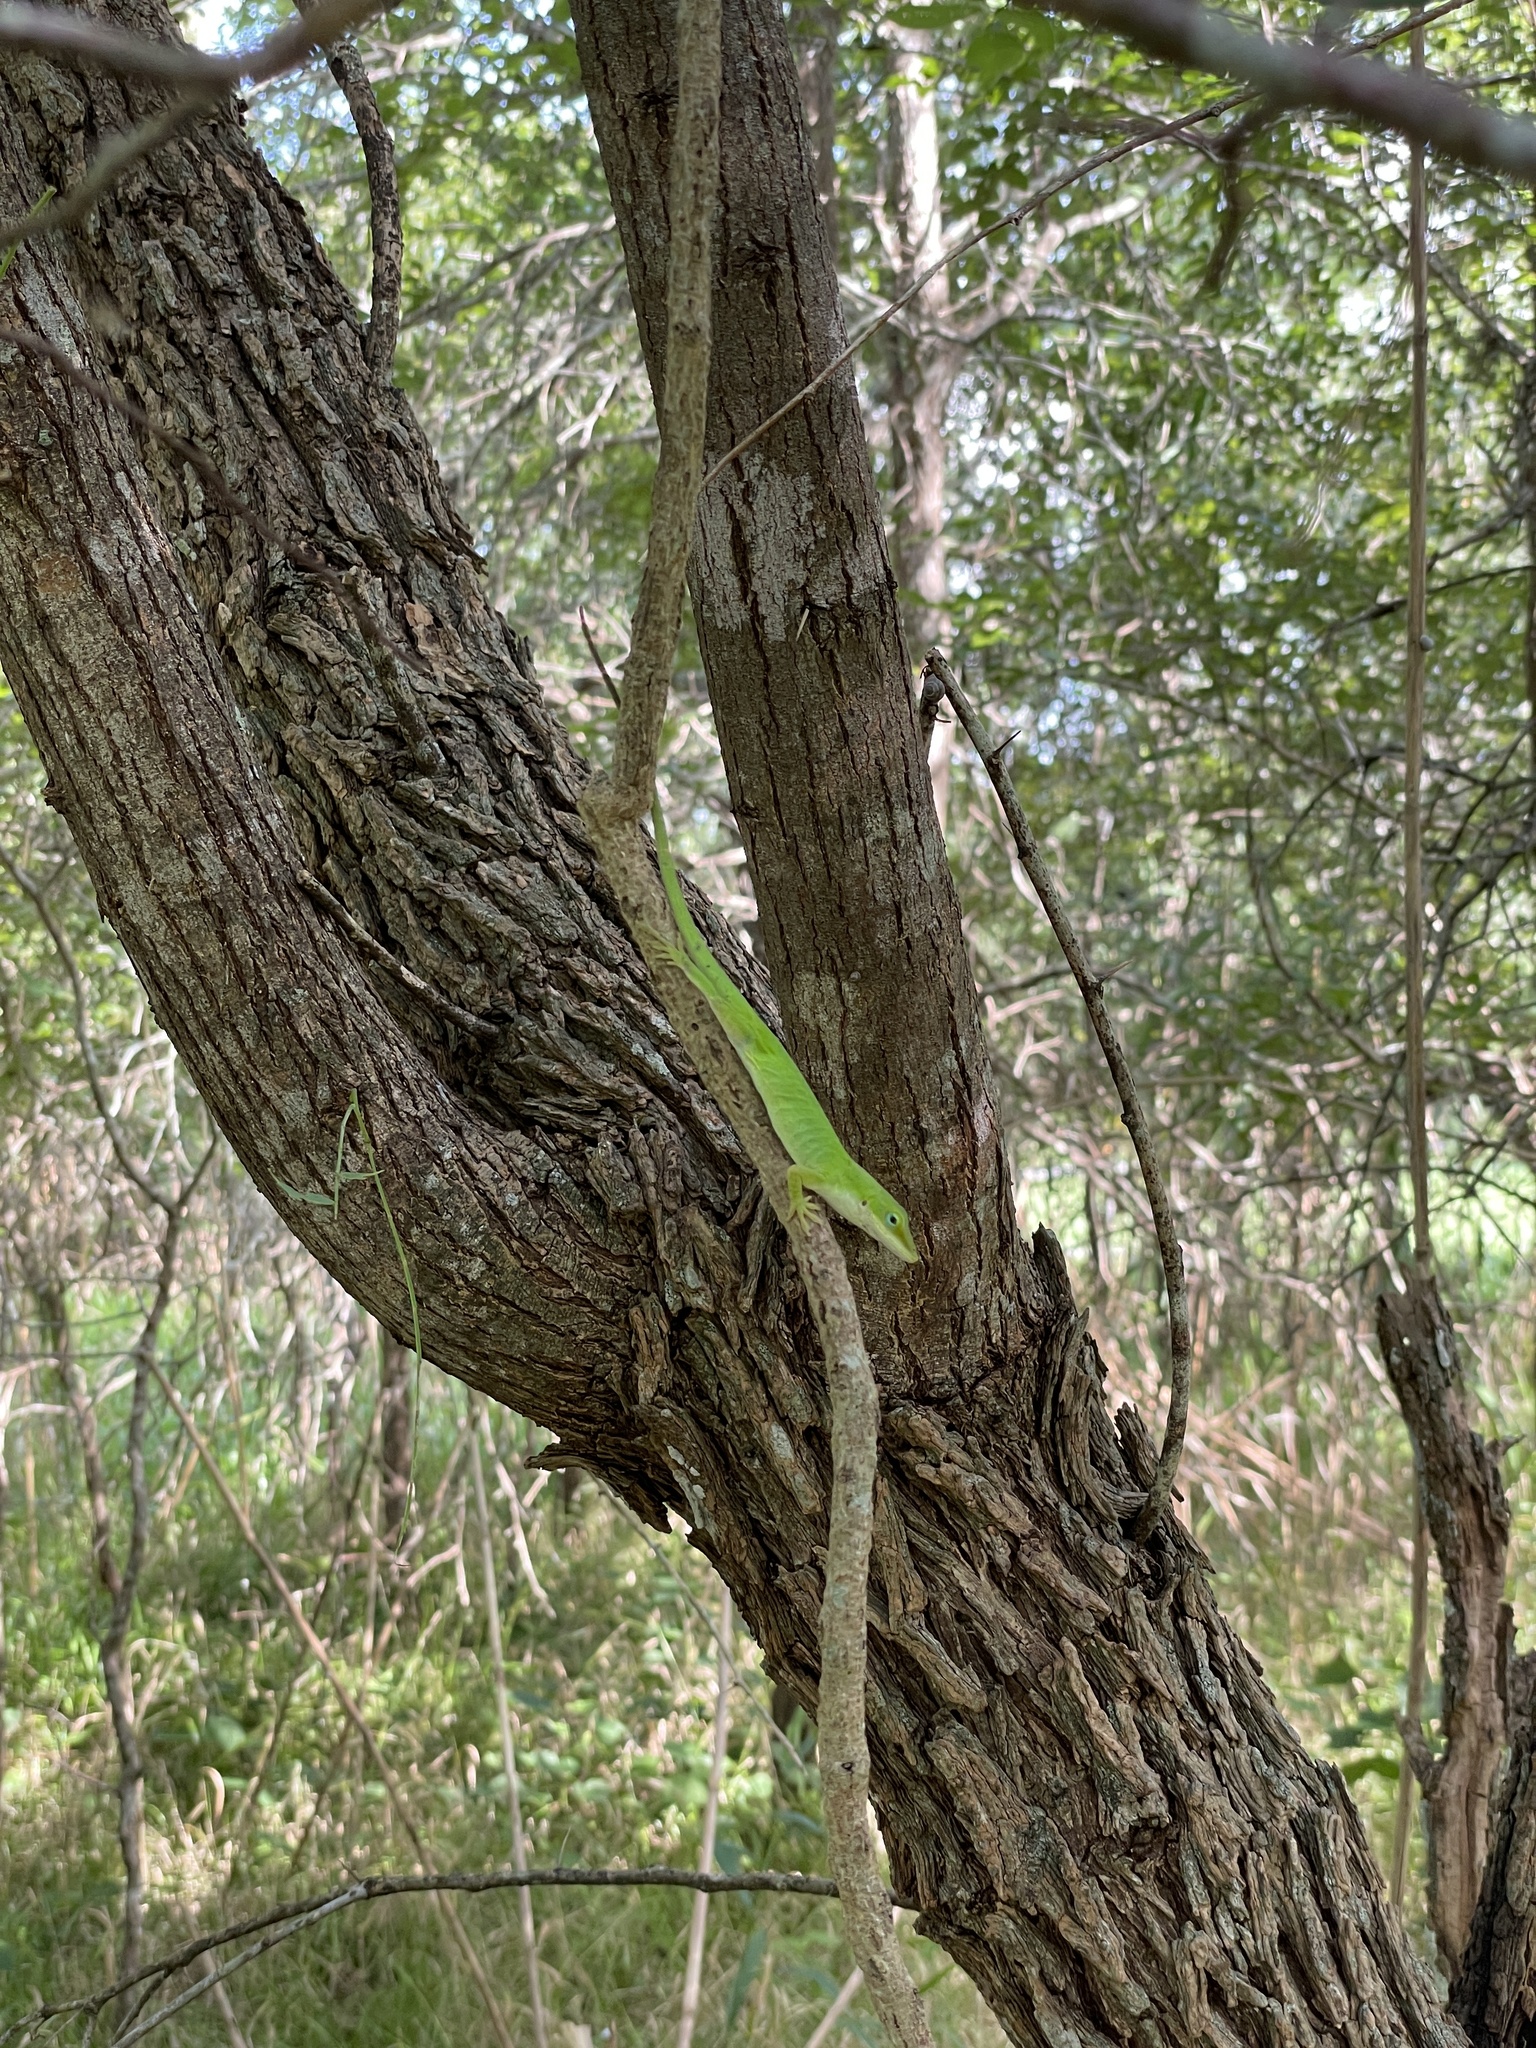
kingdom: Animalia
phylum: Chordata
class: Squamata
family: Dactyloidae
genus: Anolis
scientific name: Anolis carolinensis
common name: Green anole
